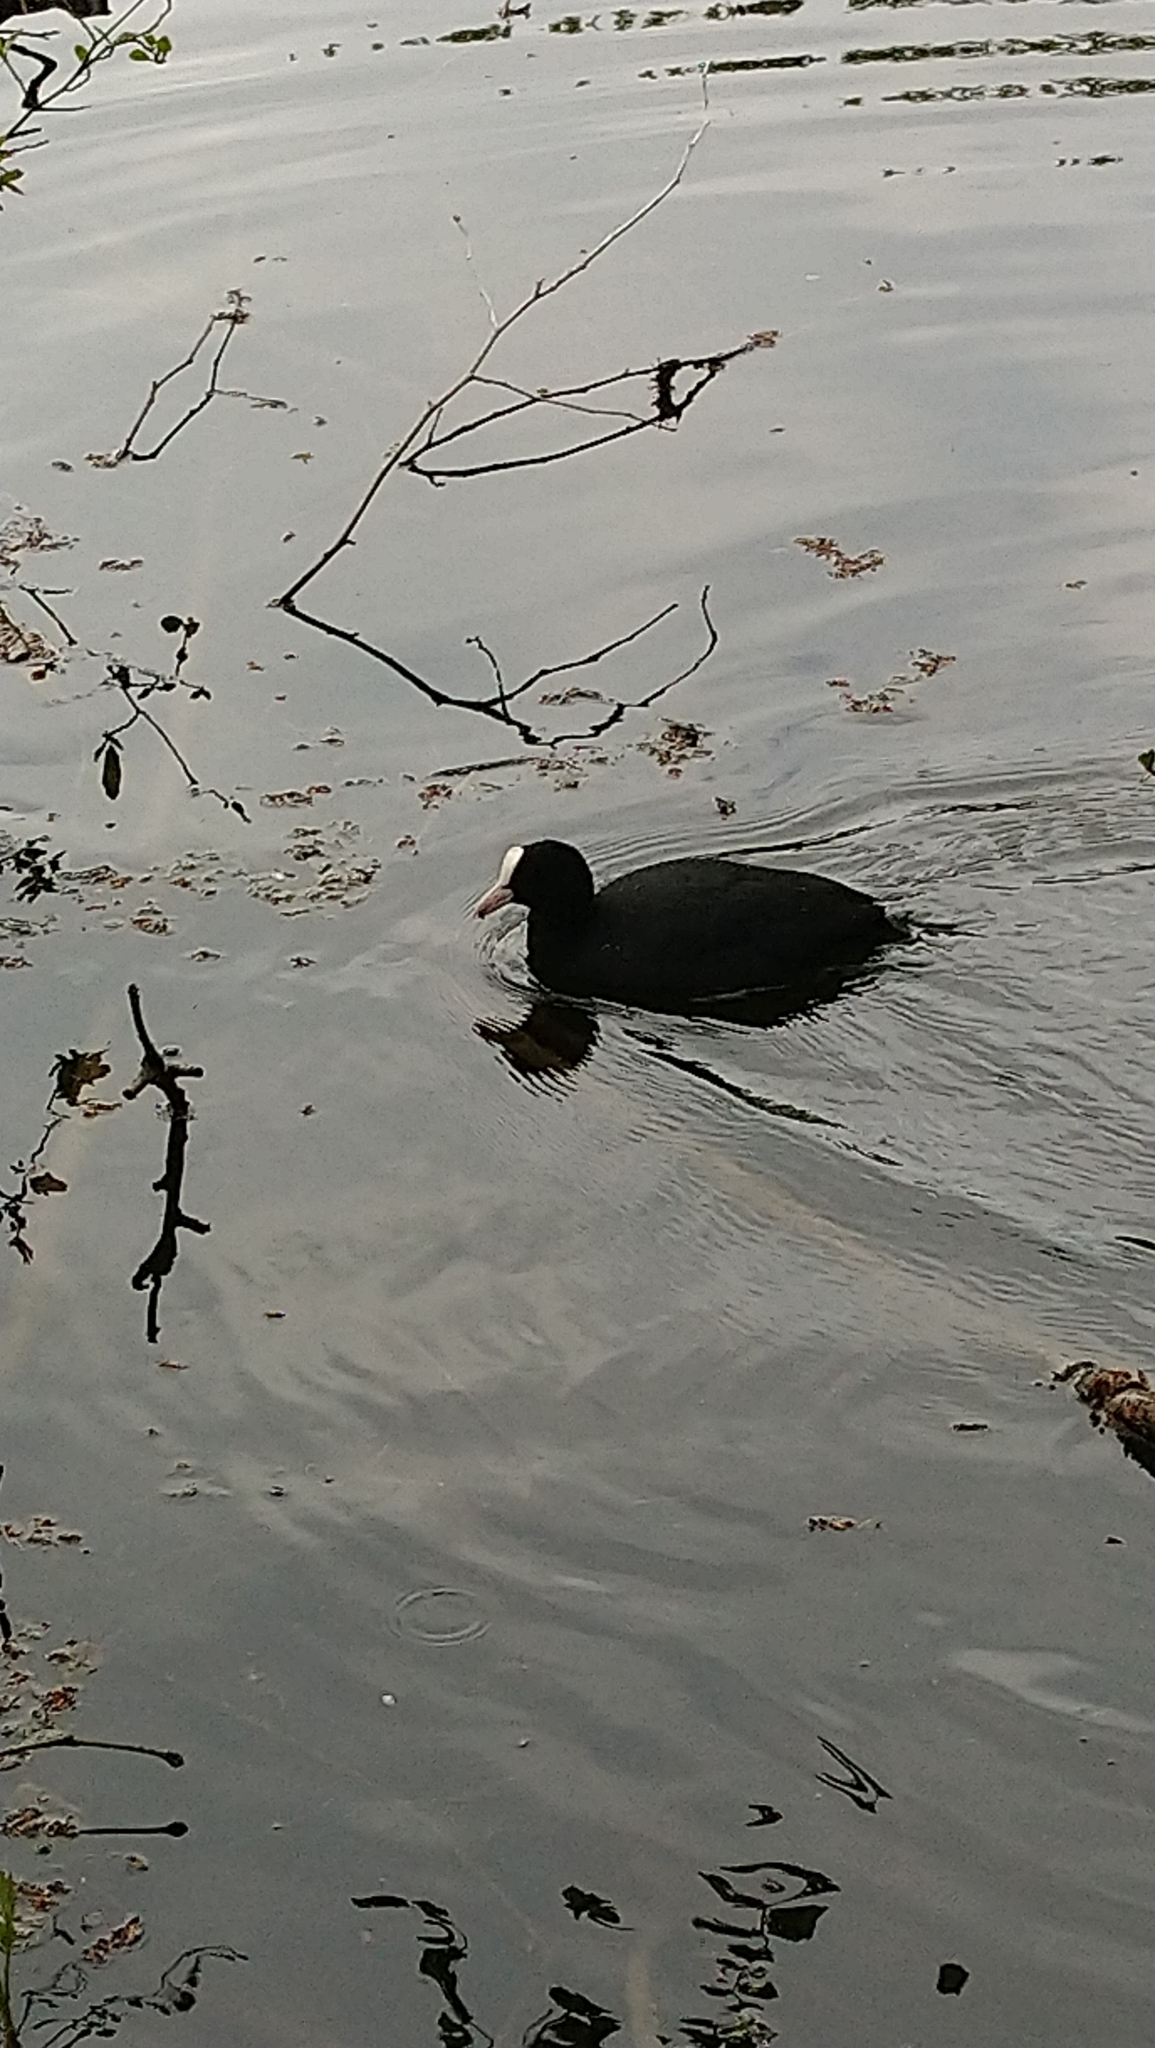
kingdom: Animalia
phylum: Chordata
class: Aves
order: Gruiformes
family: Rallidae
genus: Fulica
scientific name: Fulica atra
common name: Eurasian coot
